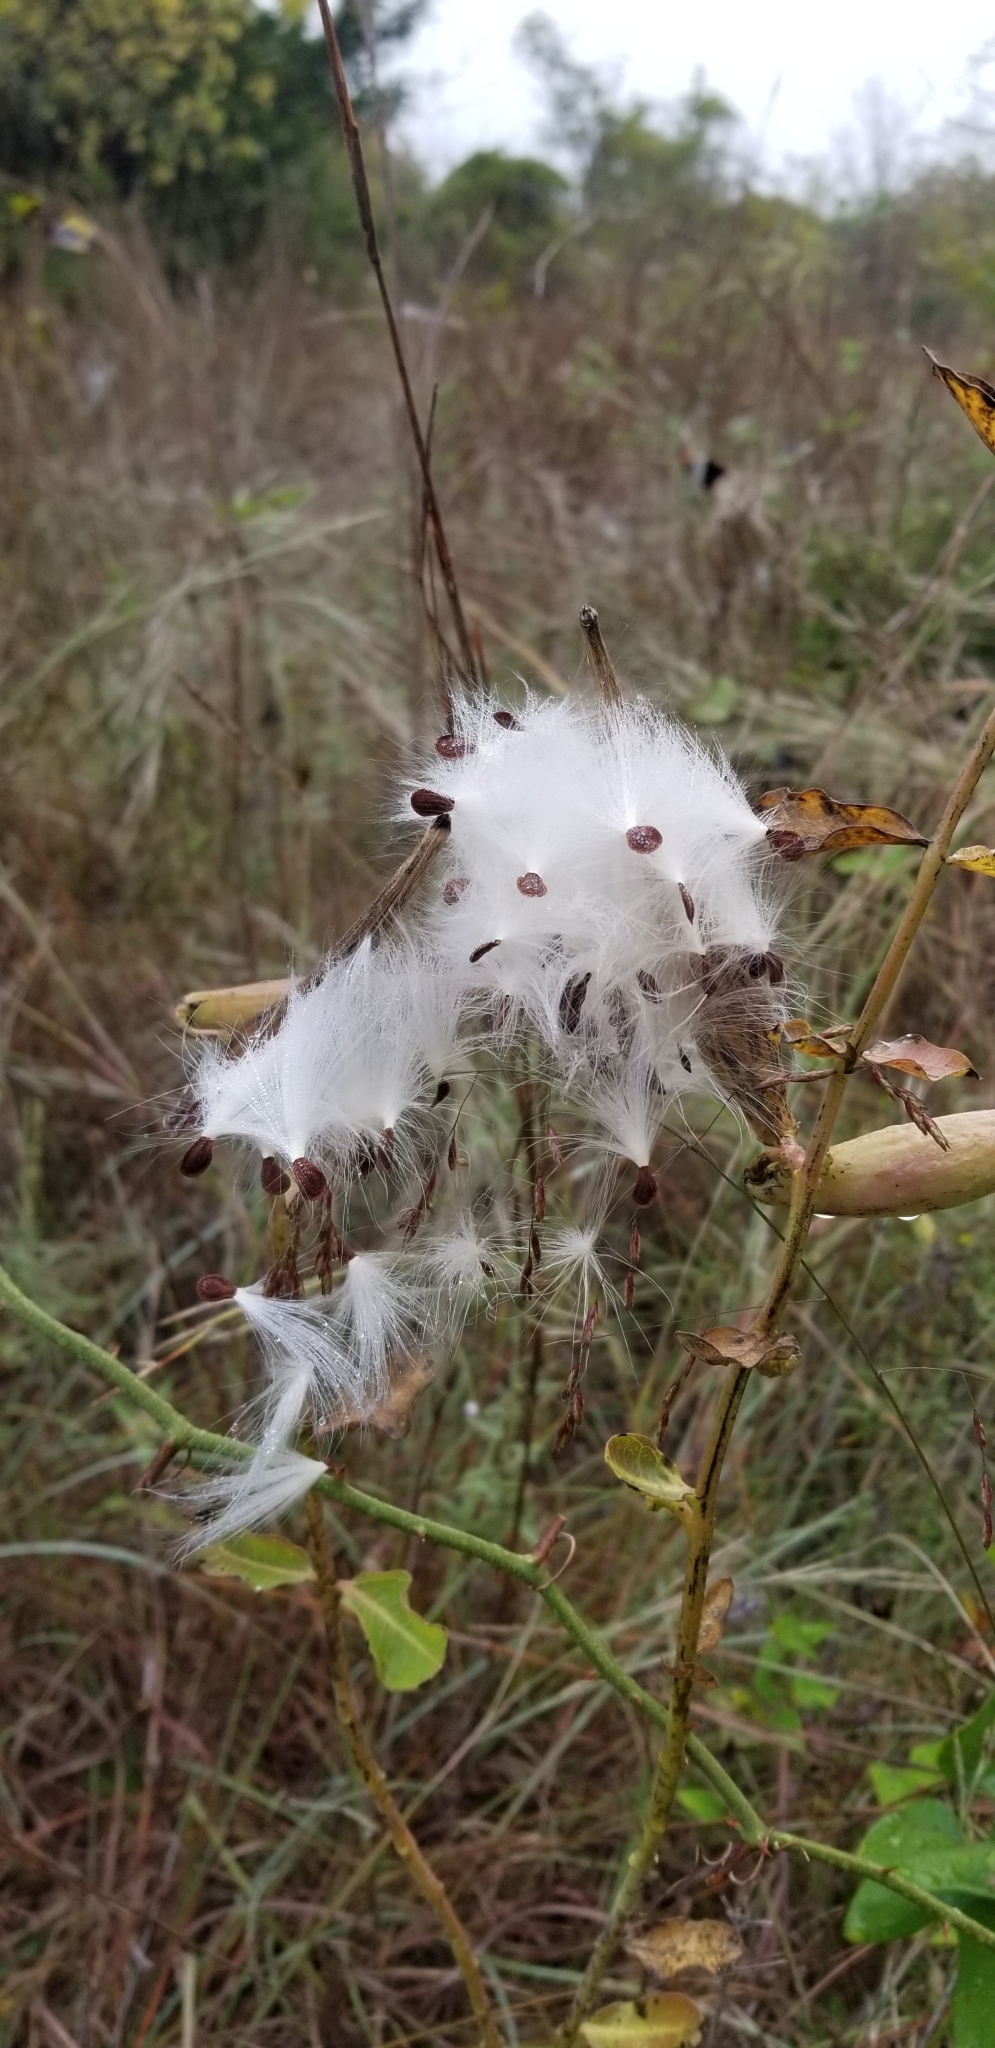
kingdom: Plantae
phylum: Tracheophyta
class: Magnoliopsida
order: Gentianales
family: Apocynaceae
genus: Asclepias
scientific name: Asclepias viridiflora
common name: Green comet milkweed
